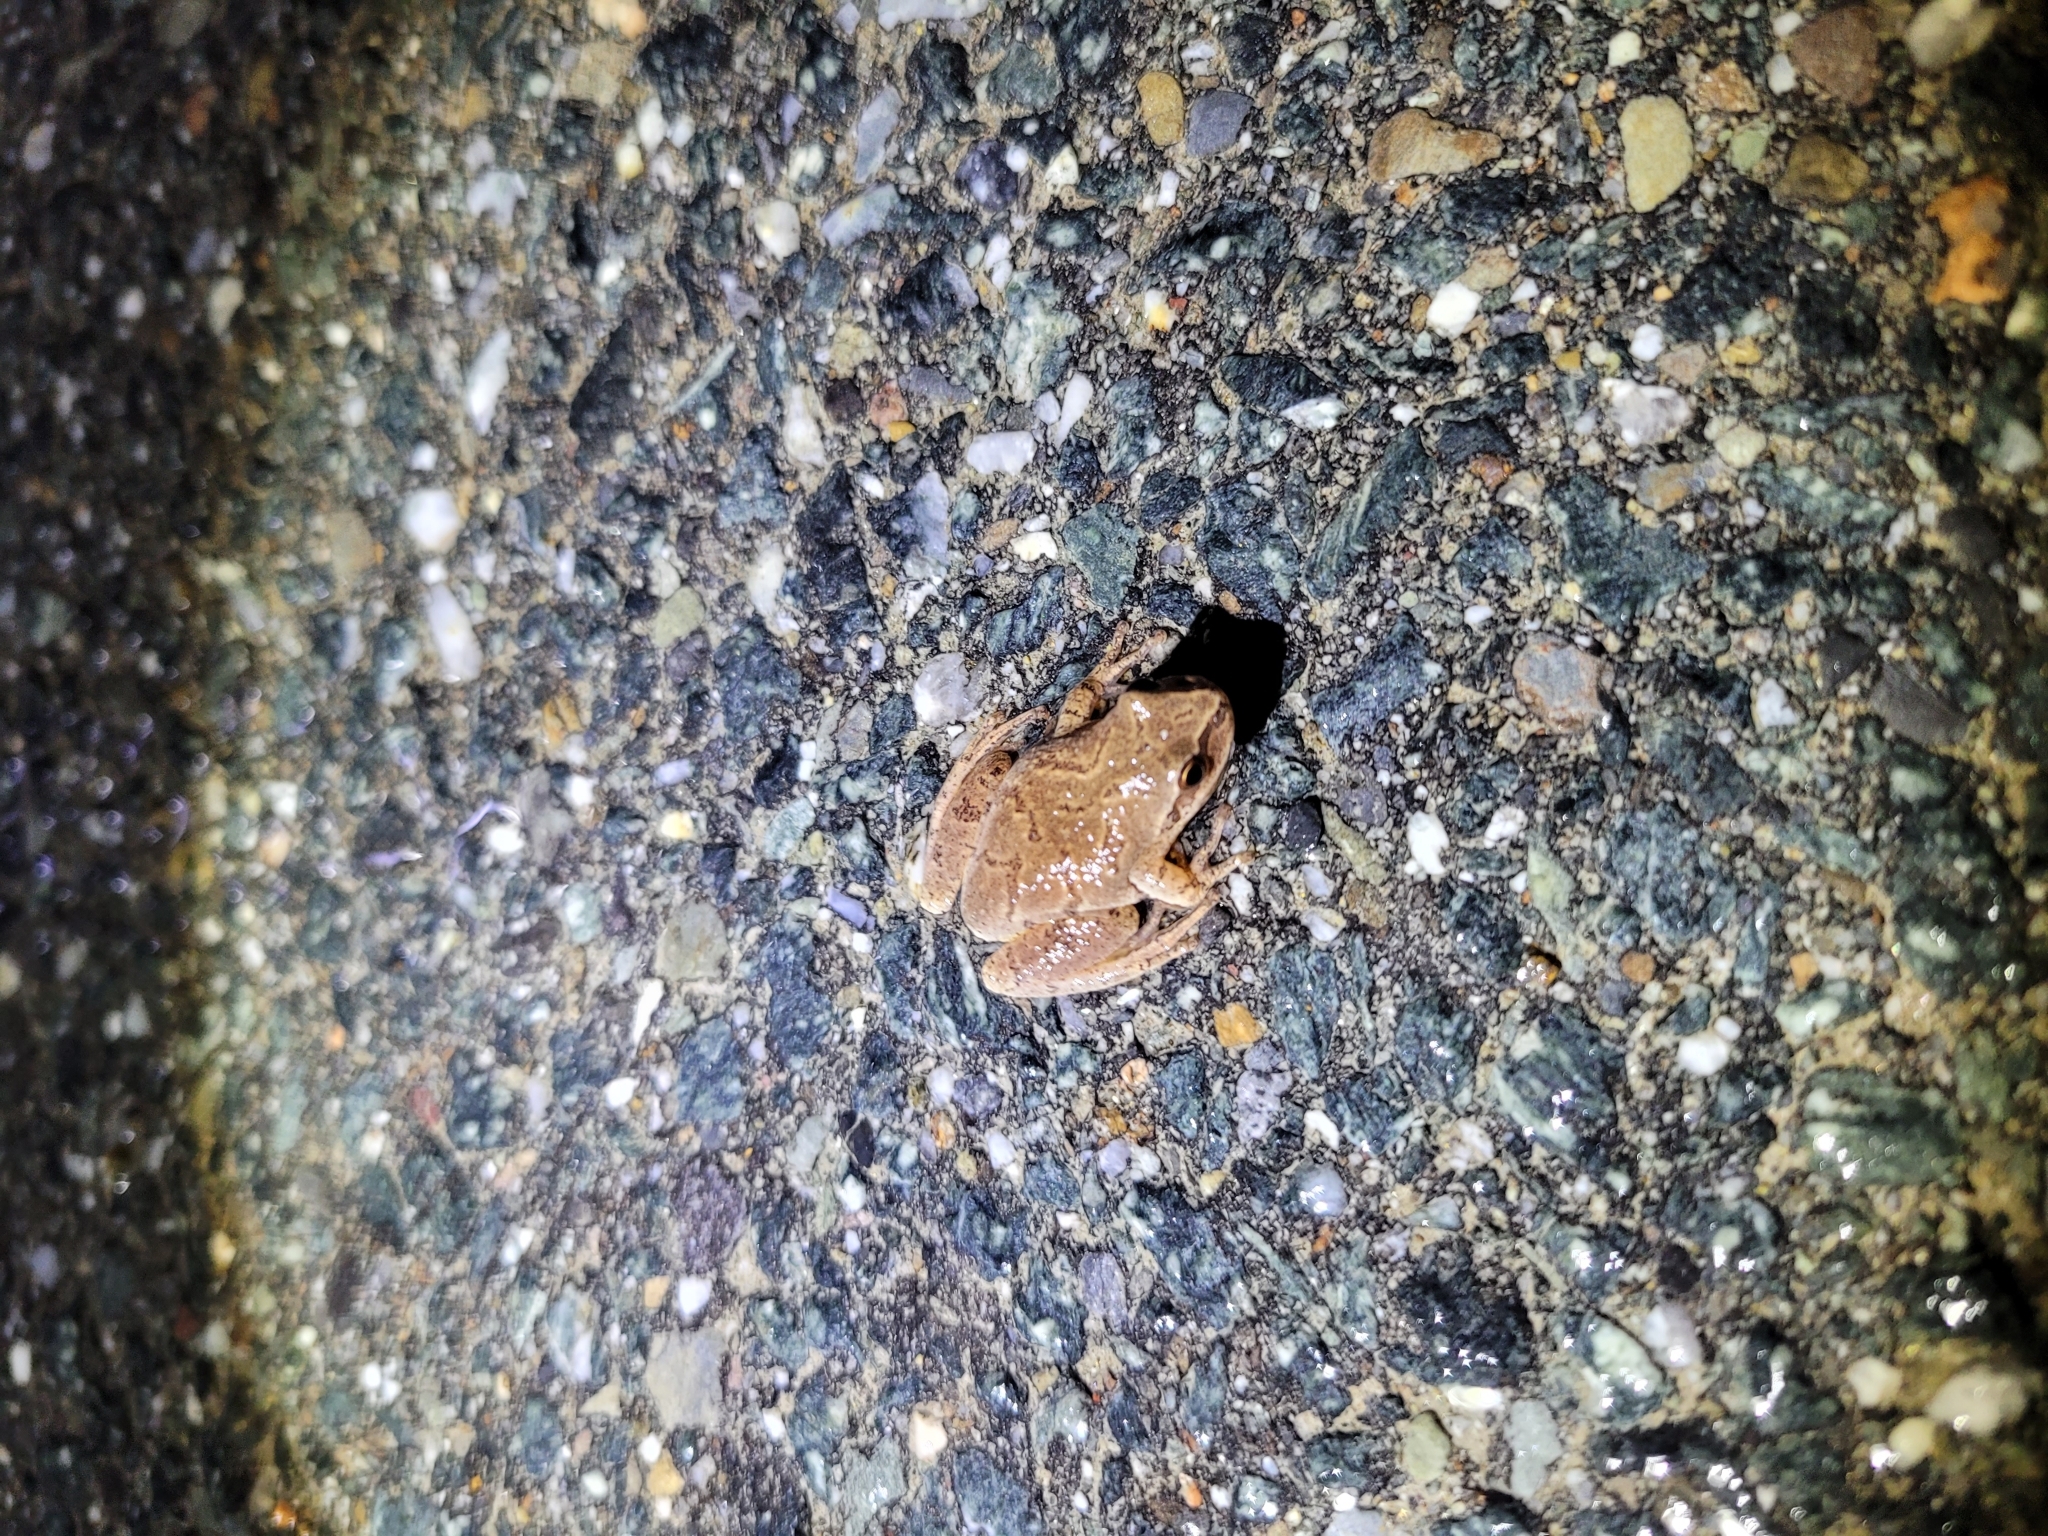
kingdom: Animalia
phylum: Chordata
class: Amphibia
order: Anura
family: Hylidae
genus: Pseudacris
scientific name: Pseudacris crucifer
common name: Spring peeper
